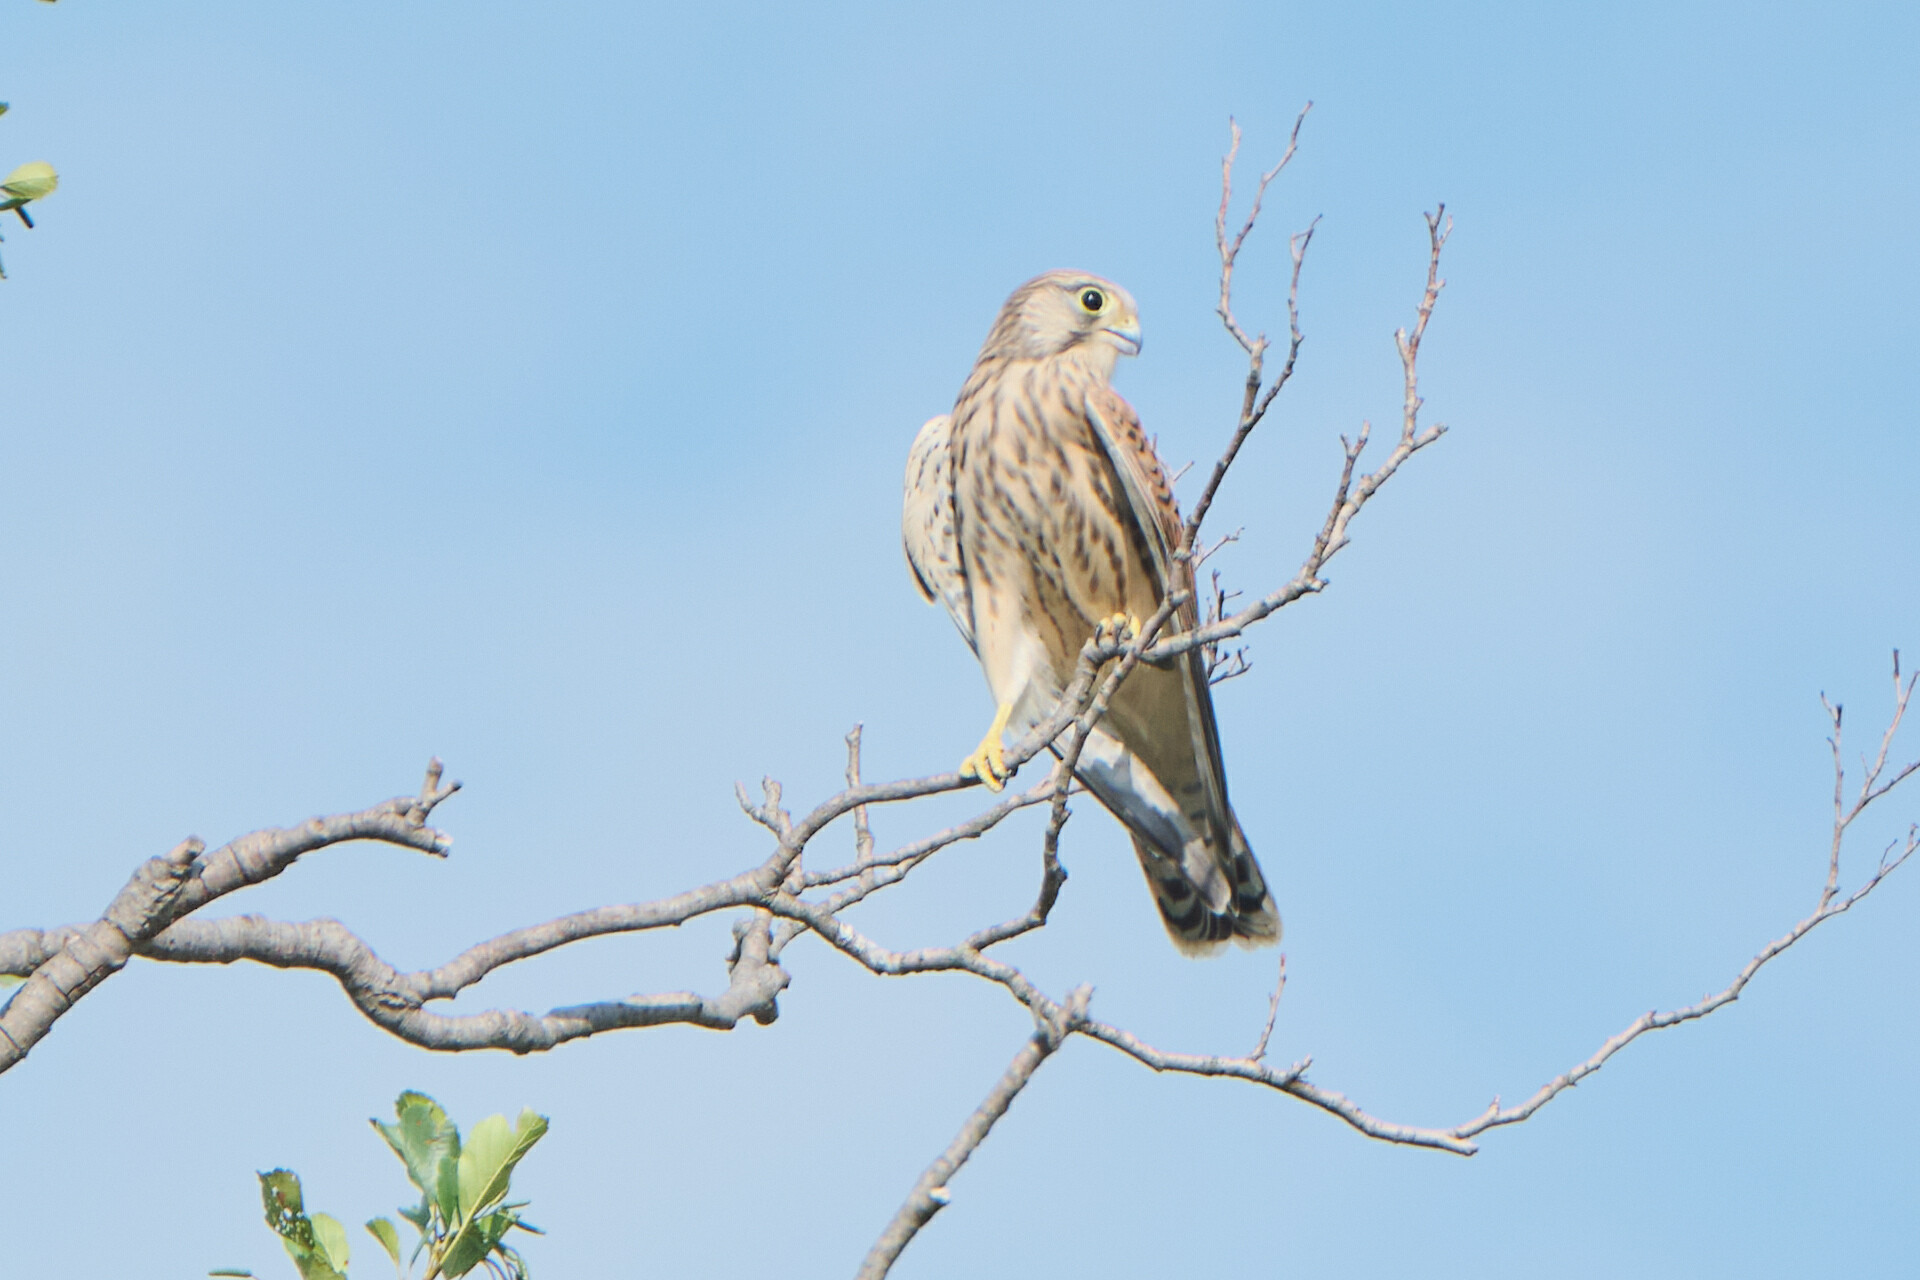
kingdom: Animalia
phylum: Chordata
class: Aves
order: Falconiformes
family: Falconidae
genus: Falco
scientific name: Falco tinnunculus
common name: Common kestrel
